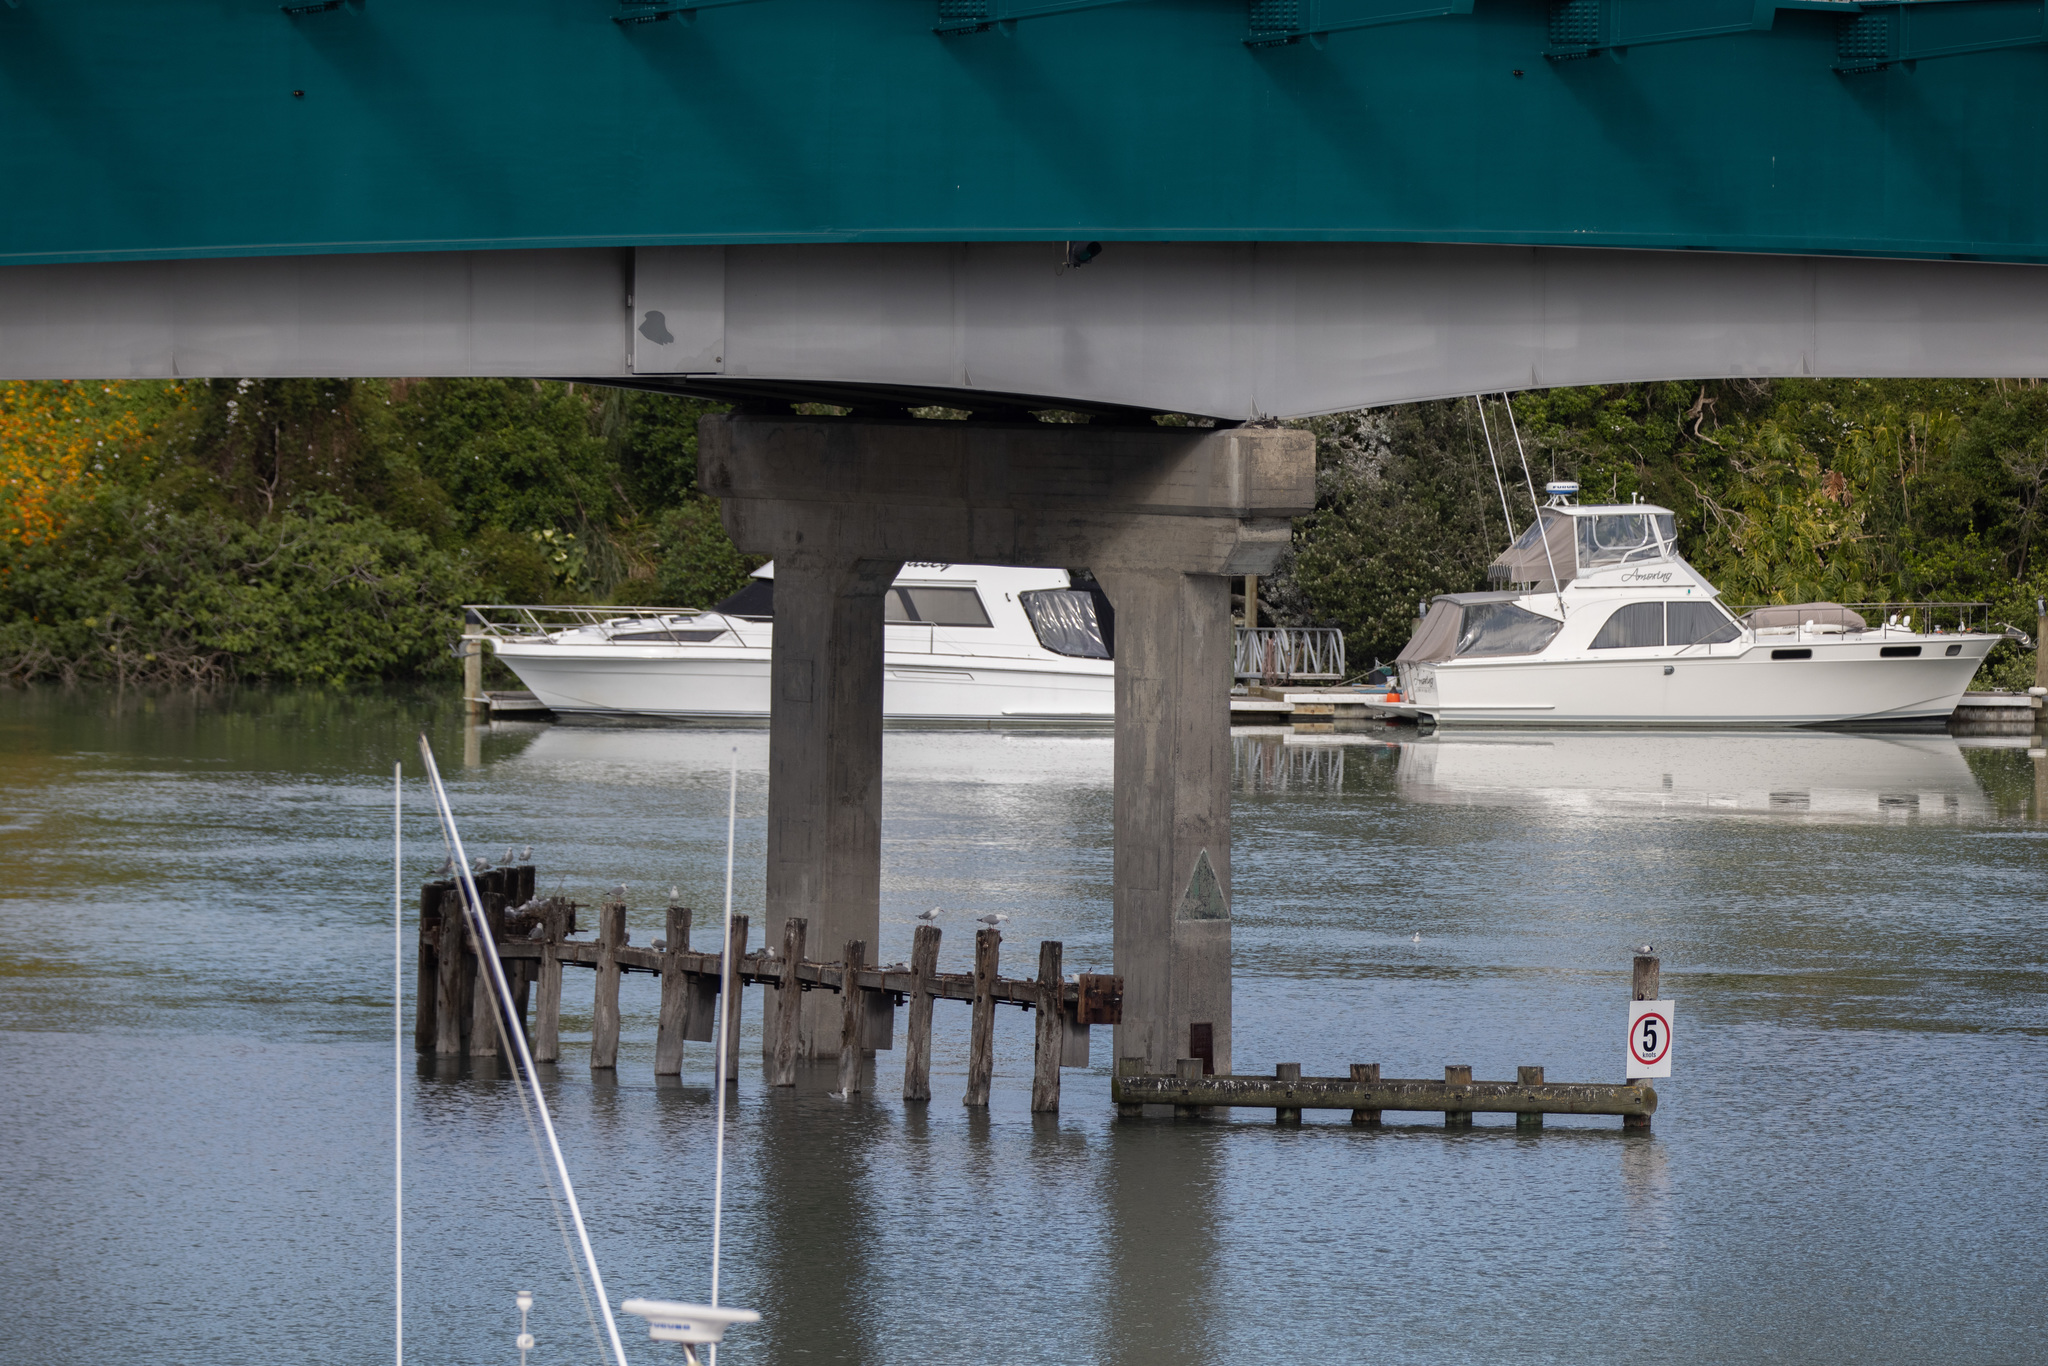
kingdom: Animalia
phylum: Chordata
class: Aves
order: Charadriiformes
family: Laridae
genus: Chroicocephalus
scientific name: Chroicocephalus novaehollandiae
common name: Silver gull
